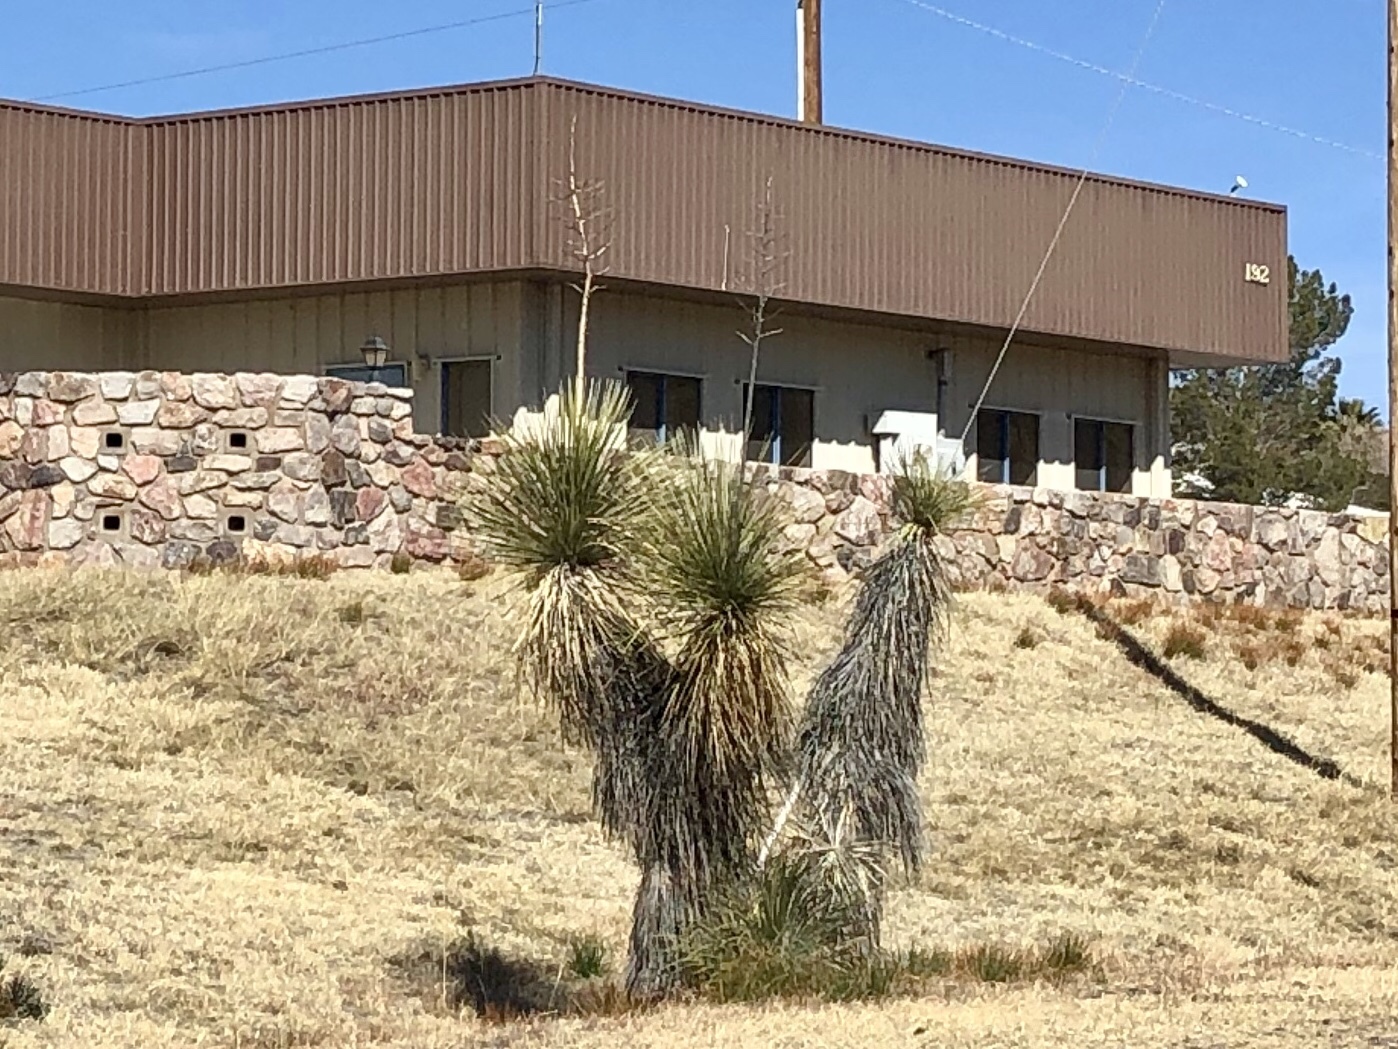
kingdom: Plantae
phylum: Tracheophyta
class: Liliopsida
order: Asparagales
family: Asparagaceae
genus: Yucca
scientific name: Yucca elata
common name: Palmella
